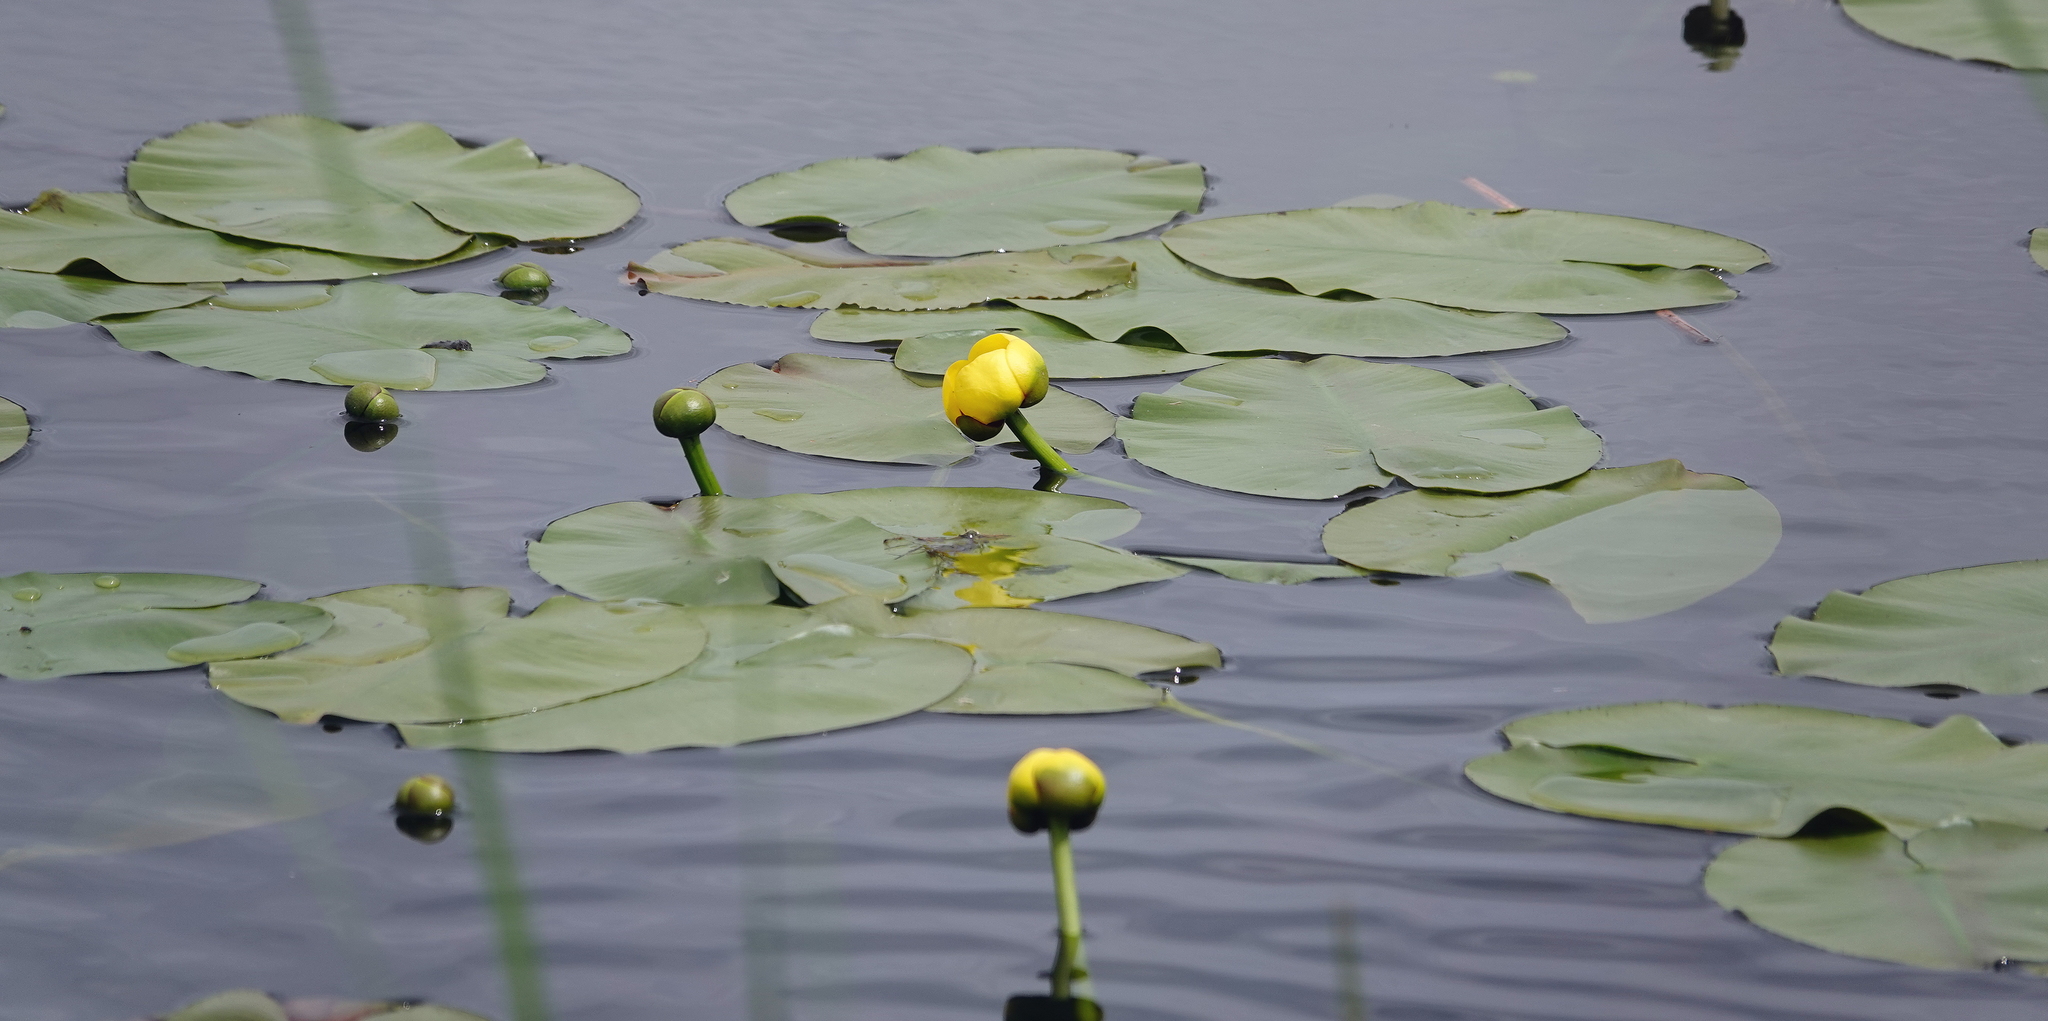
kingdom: Plantae
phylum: Tracheophyta
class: Magnoliopsida
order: Nymphaeales
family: Nymphaeaceae
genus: Nuphar
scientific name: Nuphar variegata
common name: Beaver-root
